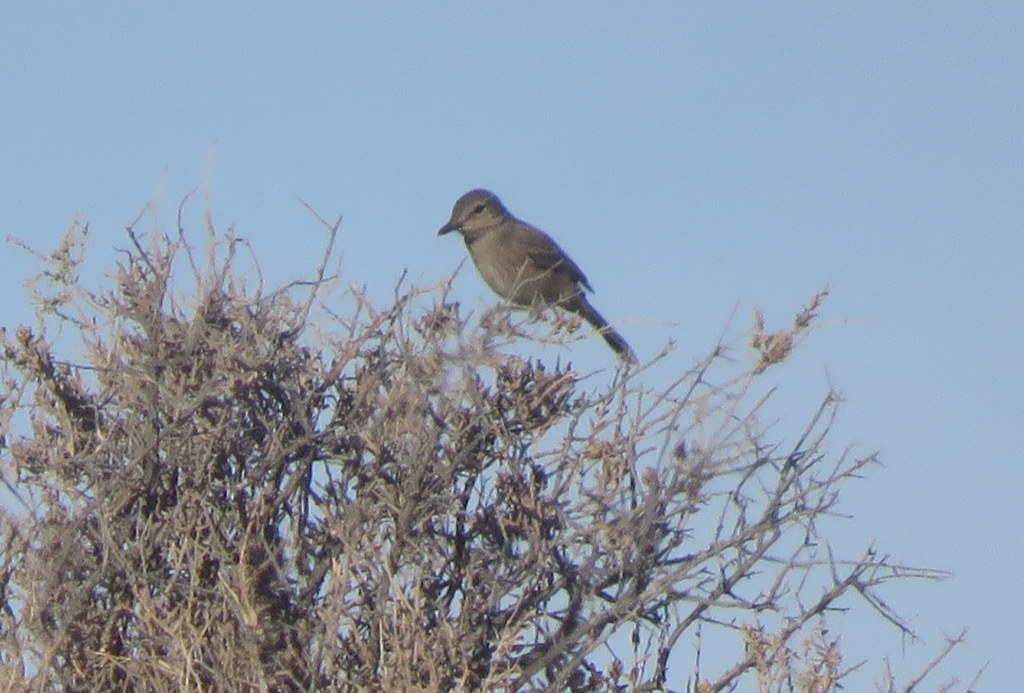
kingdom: Animalia
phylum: Chordata
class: Aves
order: Passeriformes
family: Tyrannidae
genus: Agriornis
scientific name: Agriornis micropterus
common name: Grey-bellied shrike-tyrant
